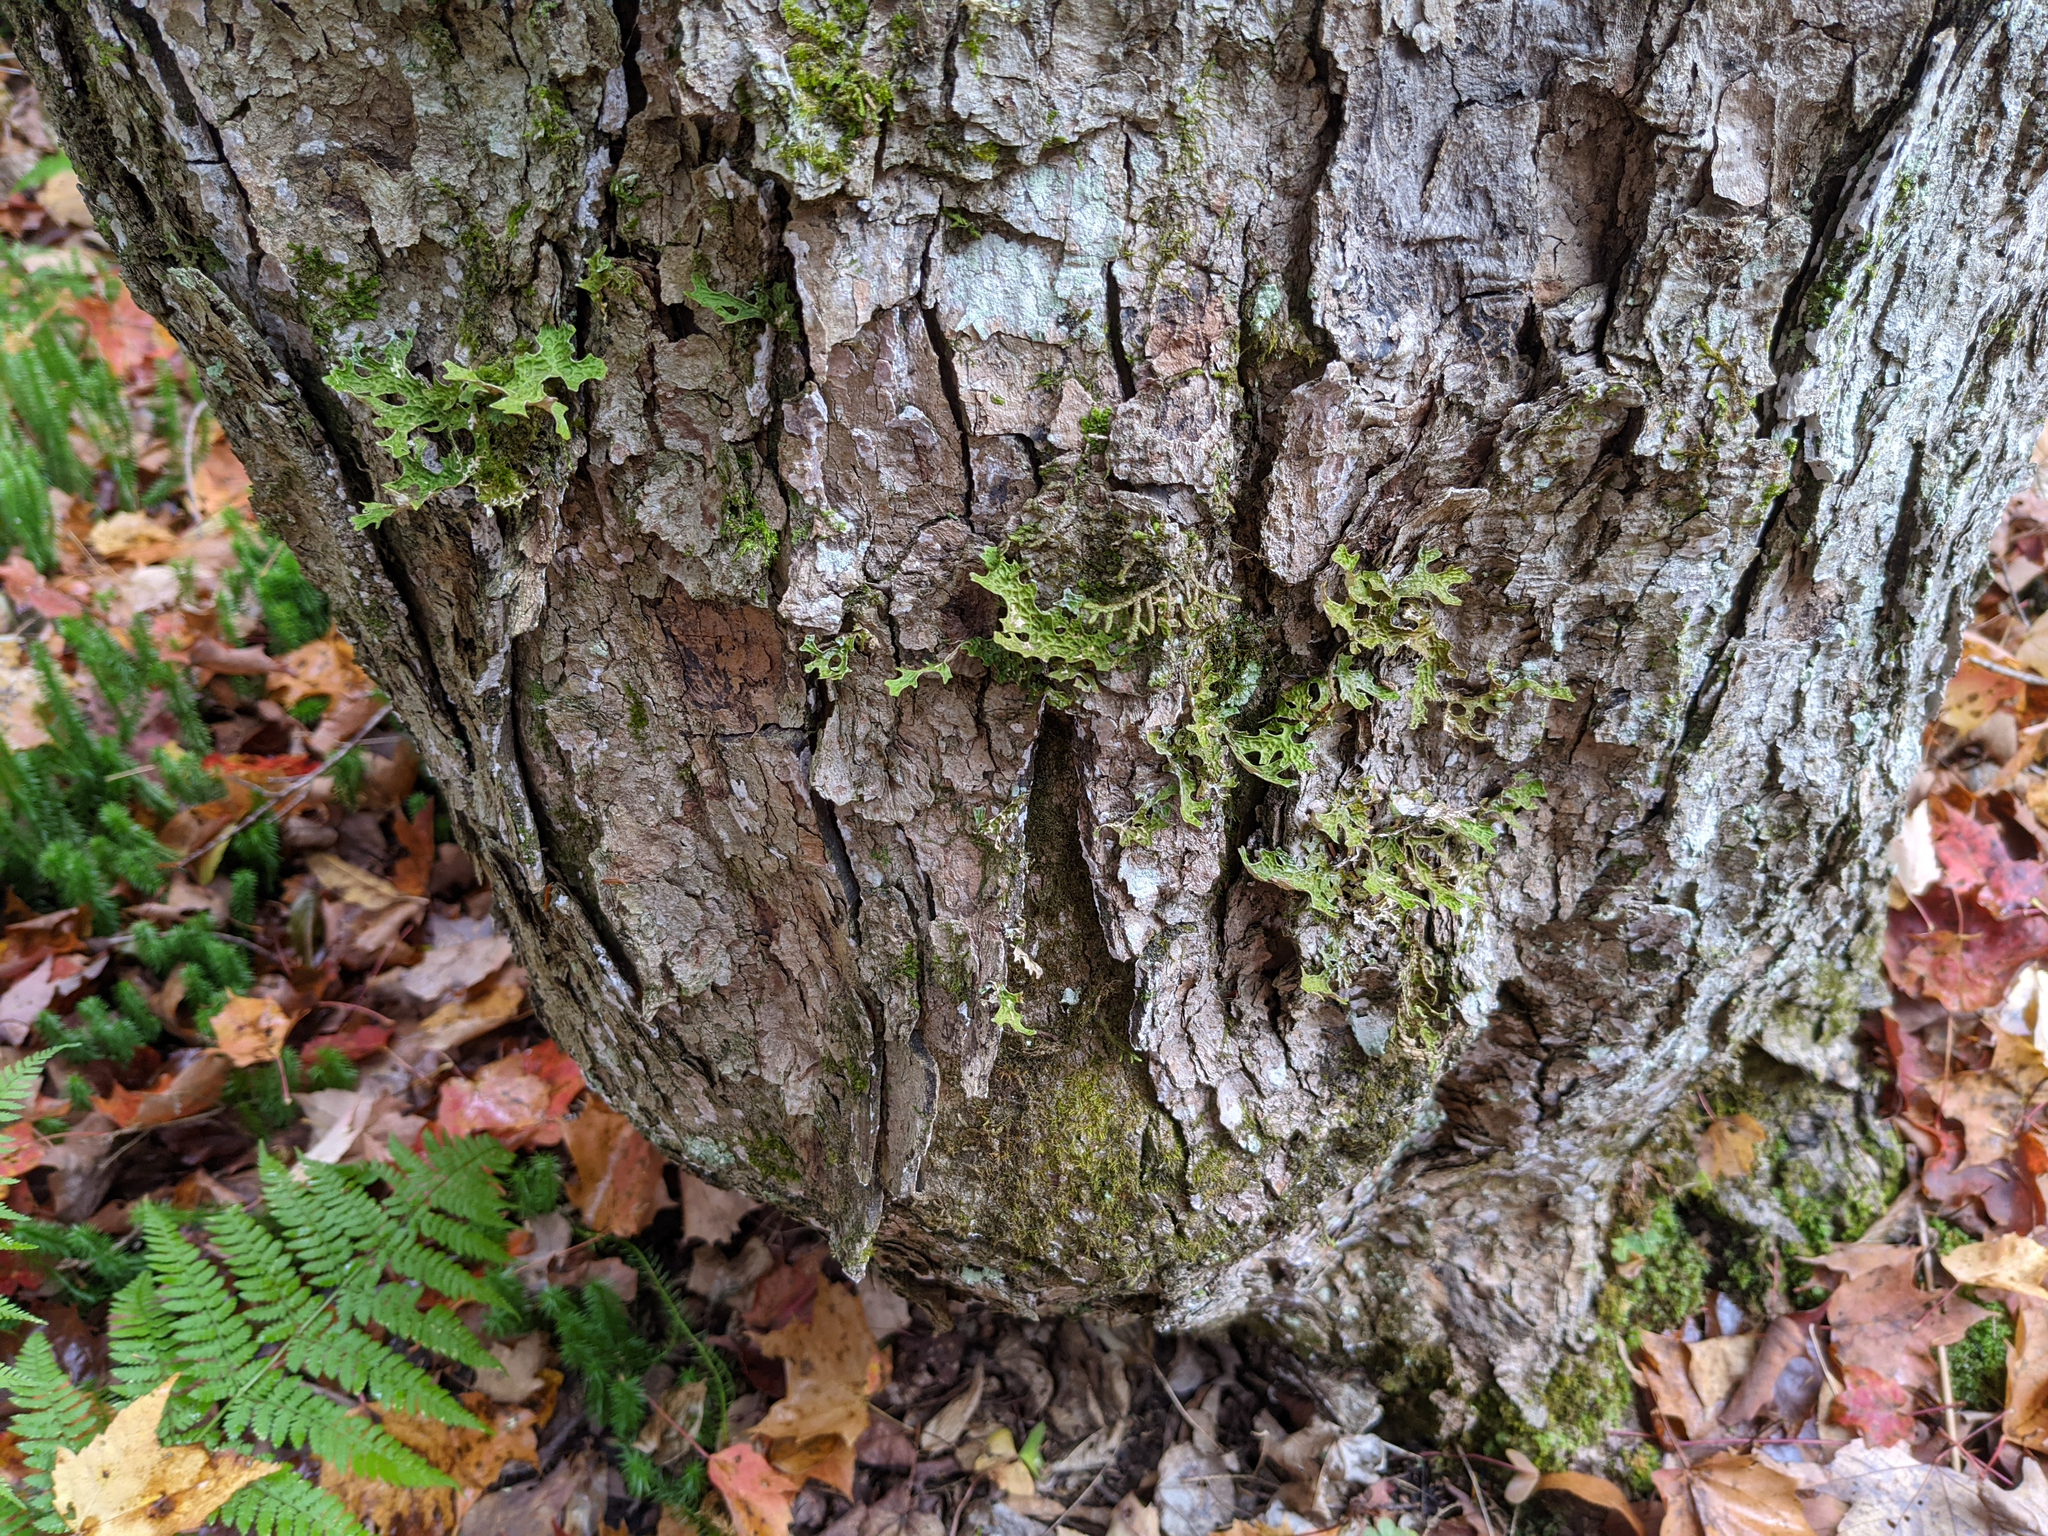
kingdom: Fungi
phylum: Ascomycota
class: Lecanoromycetes
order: Peltigerales
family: Lobariaceae
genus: Lobaria
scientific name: Lobaria pulmonaria
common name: Lungwort
